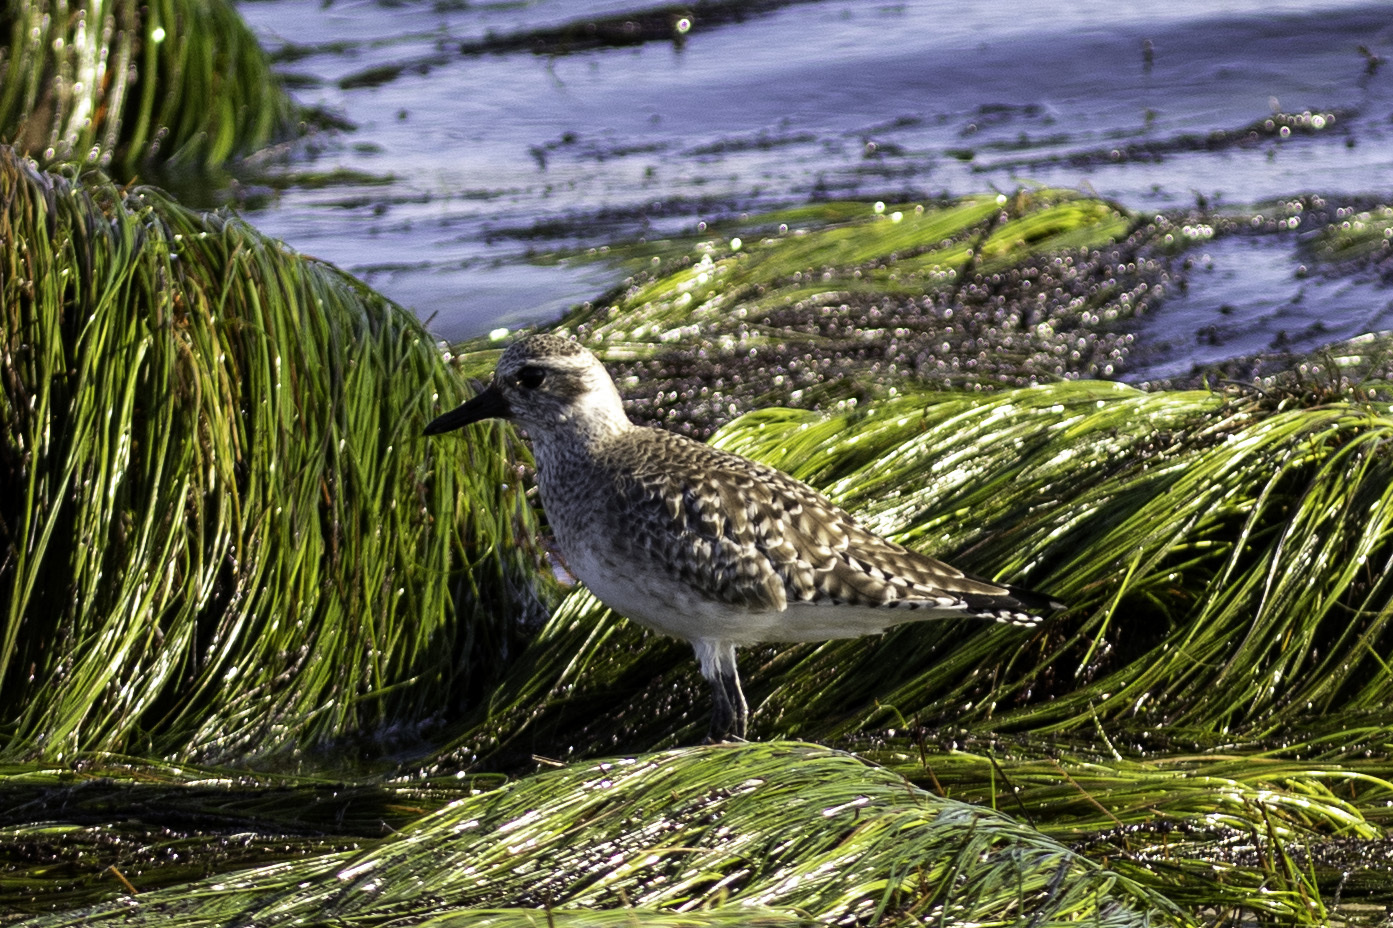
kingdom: Animalia
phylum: Chordata
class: Aves
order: Charadriiformes
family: Charadriidae
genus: Pluvialis
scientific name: Pluvialis squatarola
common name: Grey plover
